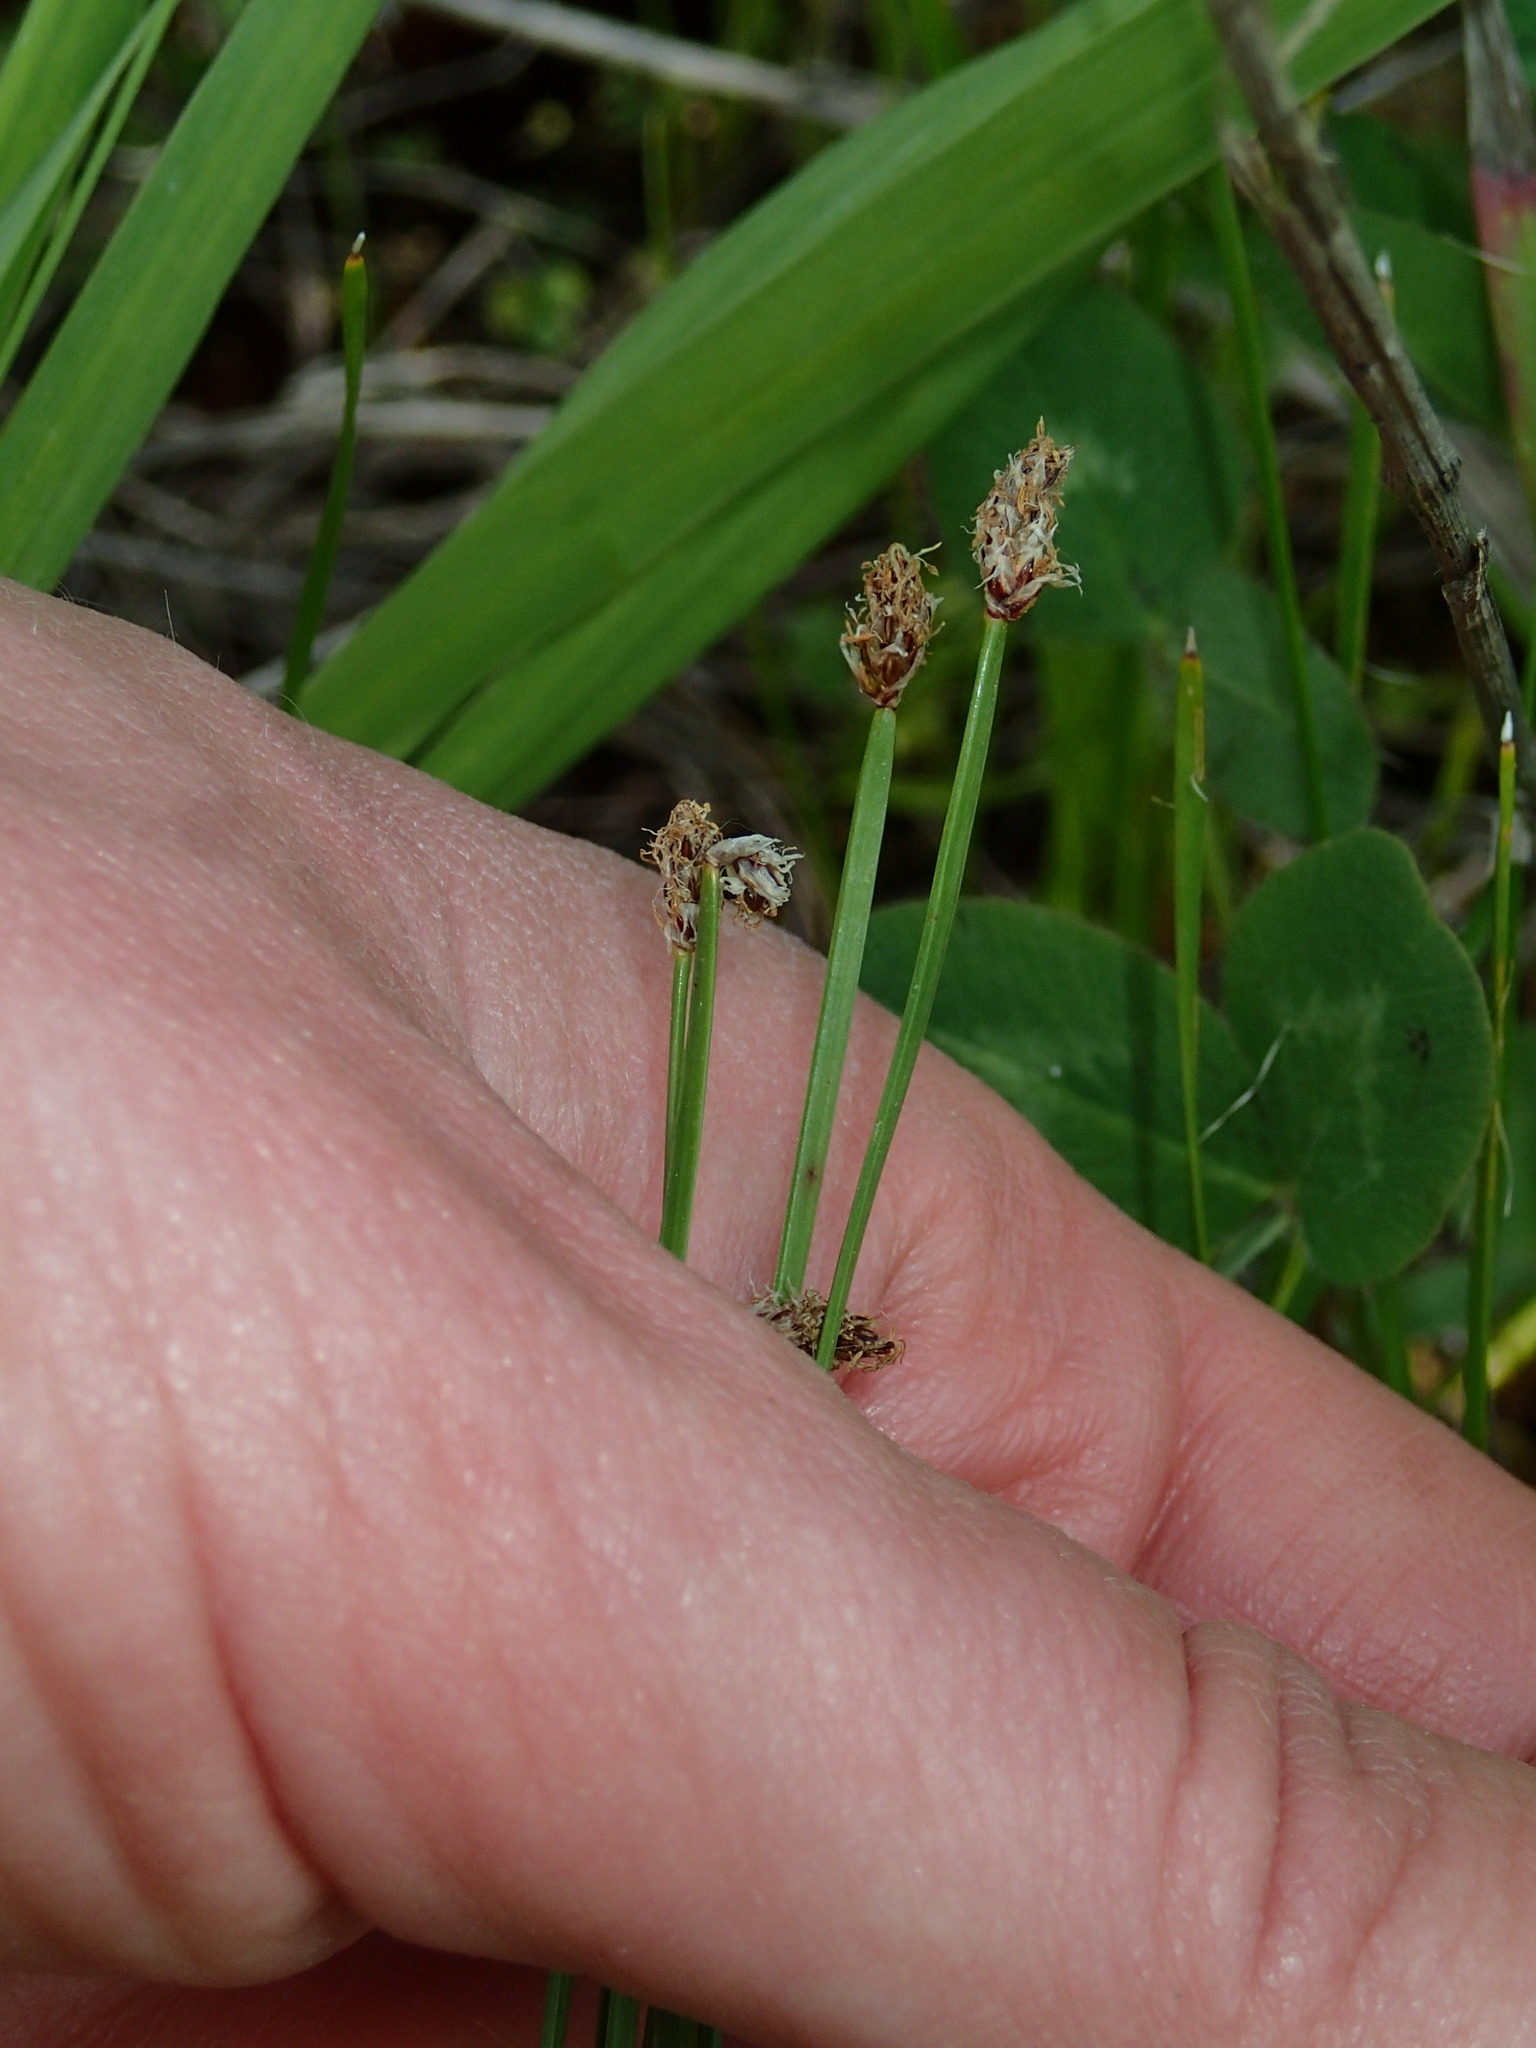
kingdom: Plantae
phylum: Tracheophyta
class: Liliopsida
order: Poales
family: Cyperaceae
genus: Eleocharis
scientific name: Eleocharis compressa
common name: Flat-stem spike-rush
